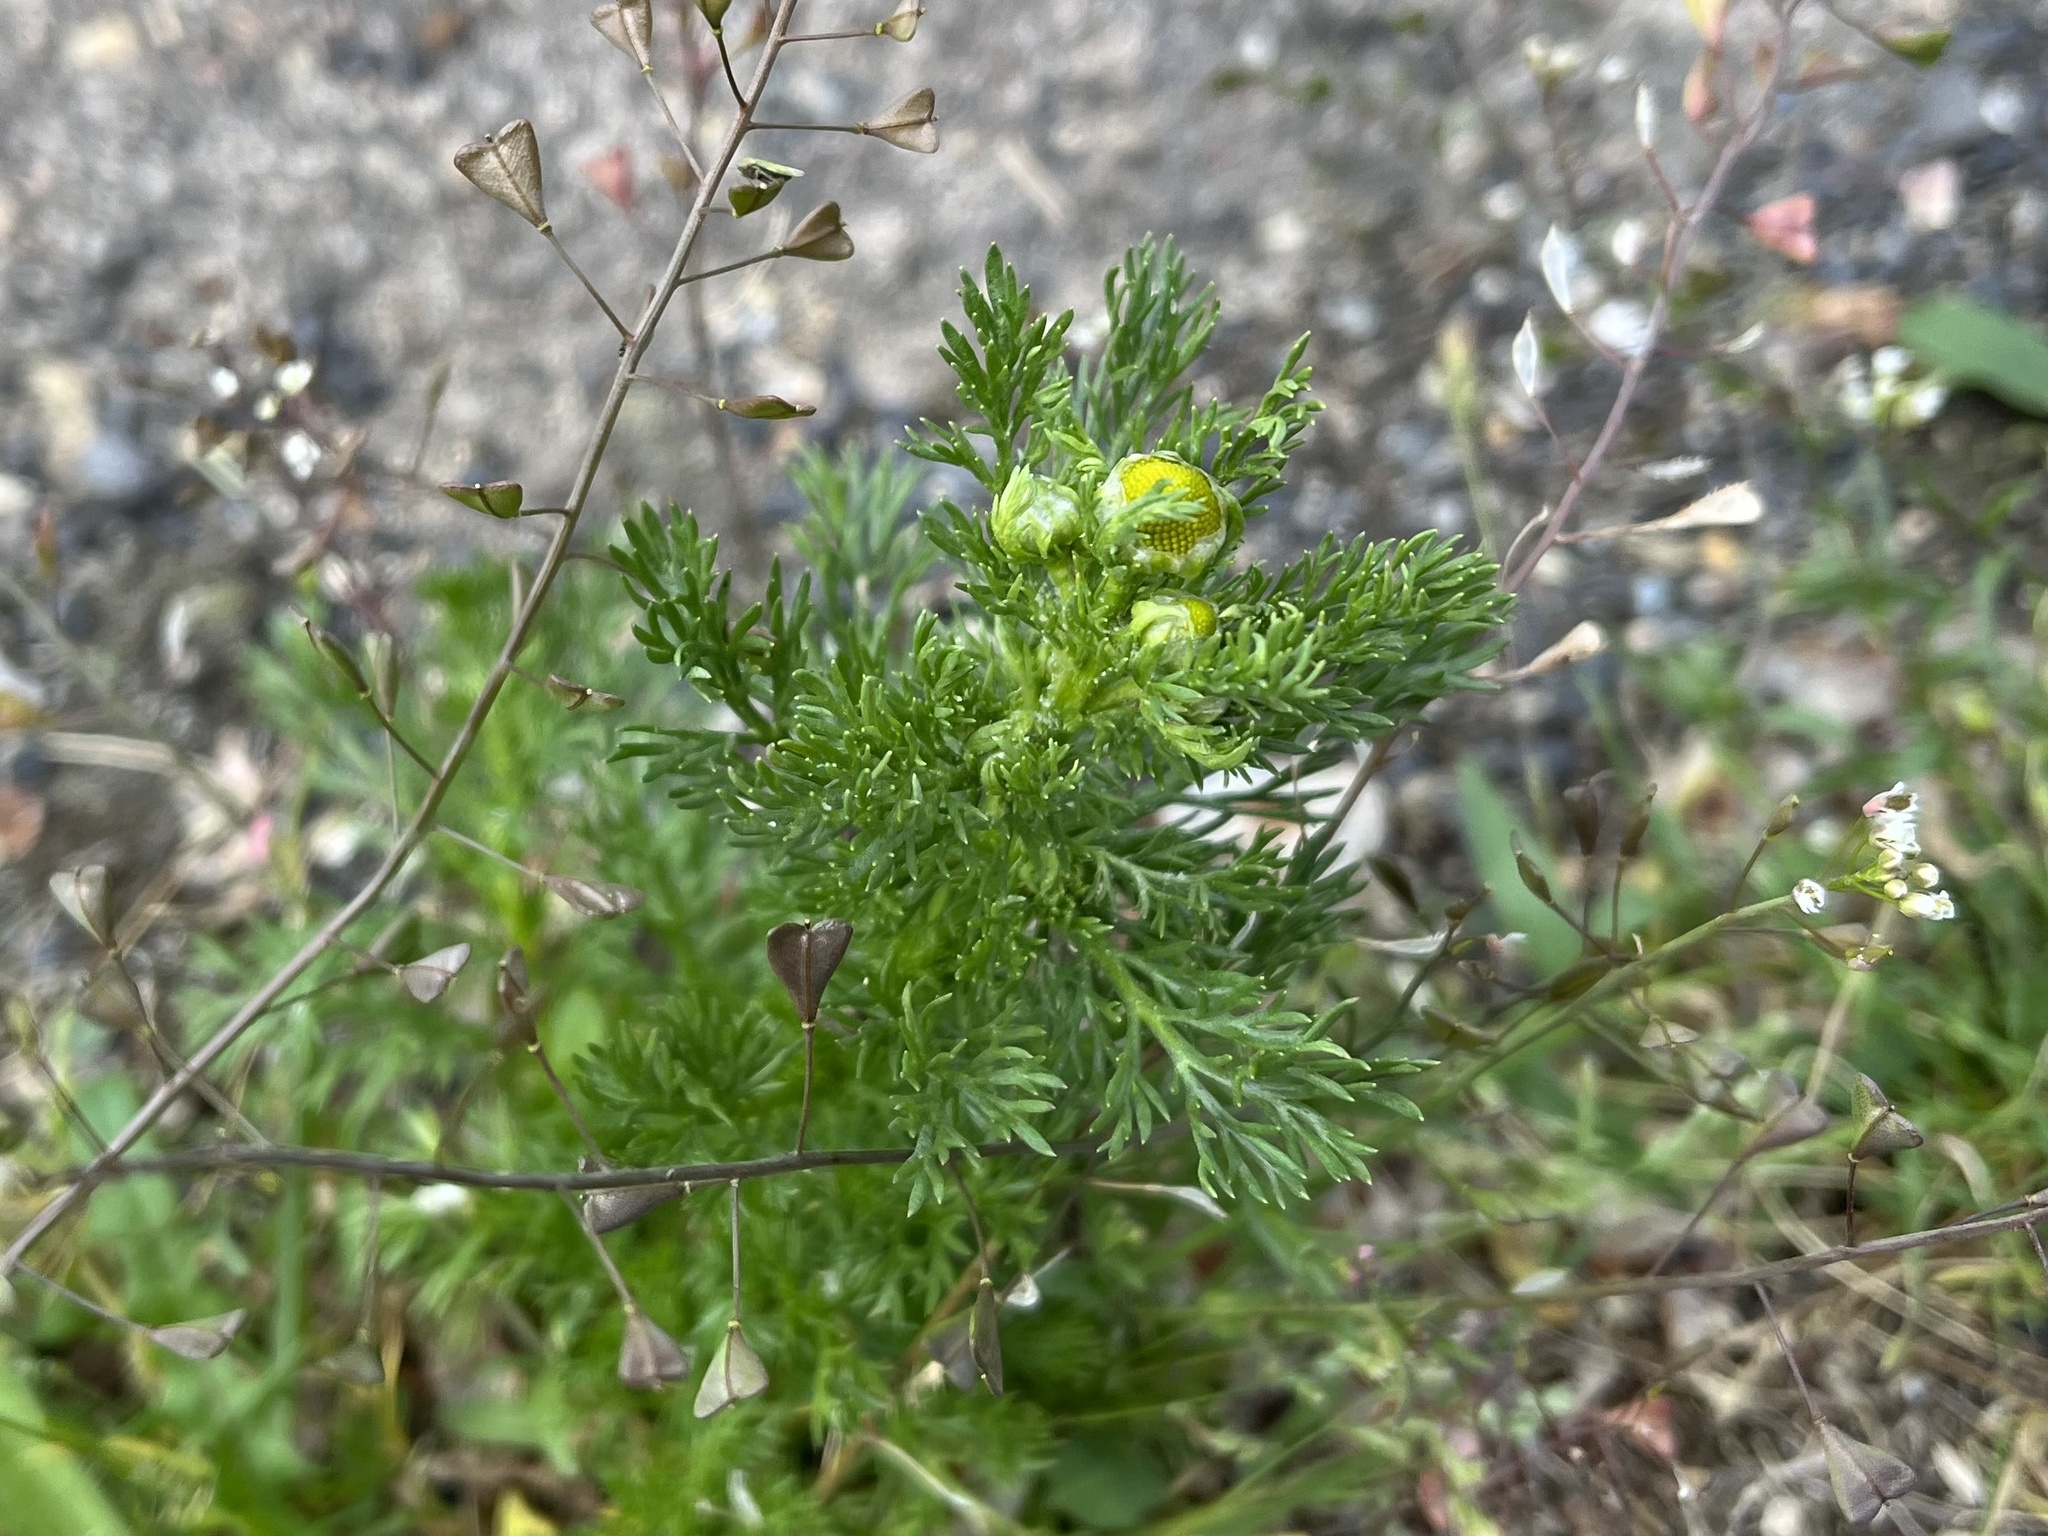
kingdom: Plantae
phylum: Tracheophyta
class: Magnoliopsida
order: Asterales
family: Asteraceae
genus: Matricaria
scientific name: Matricaria discoidea
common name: Disc mayweed
